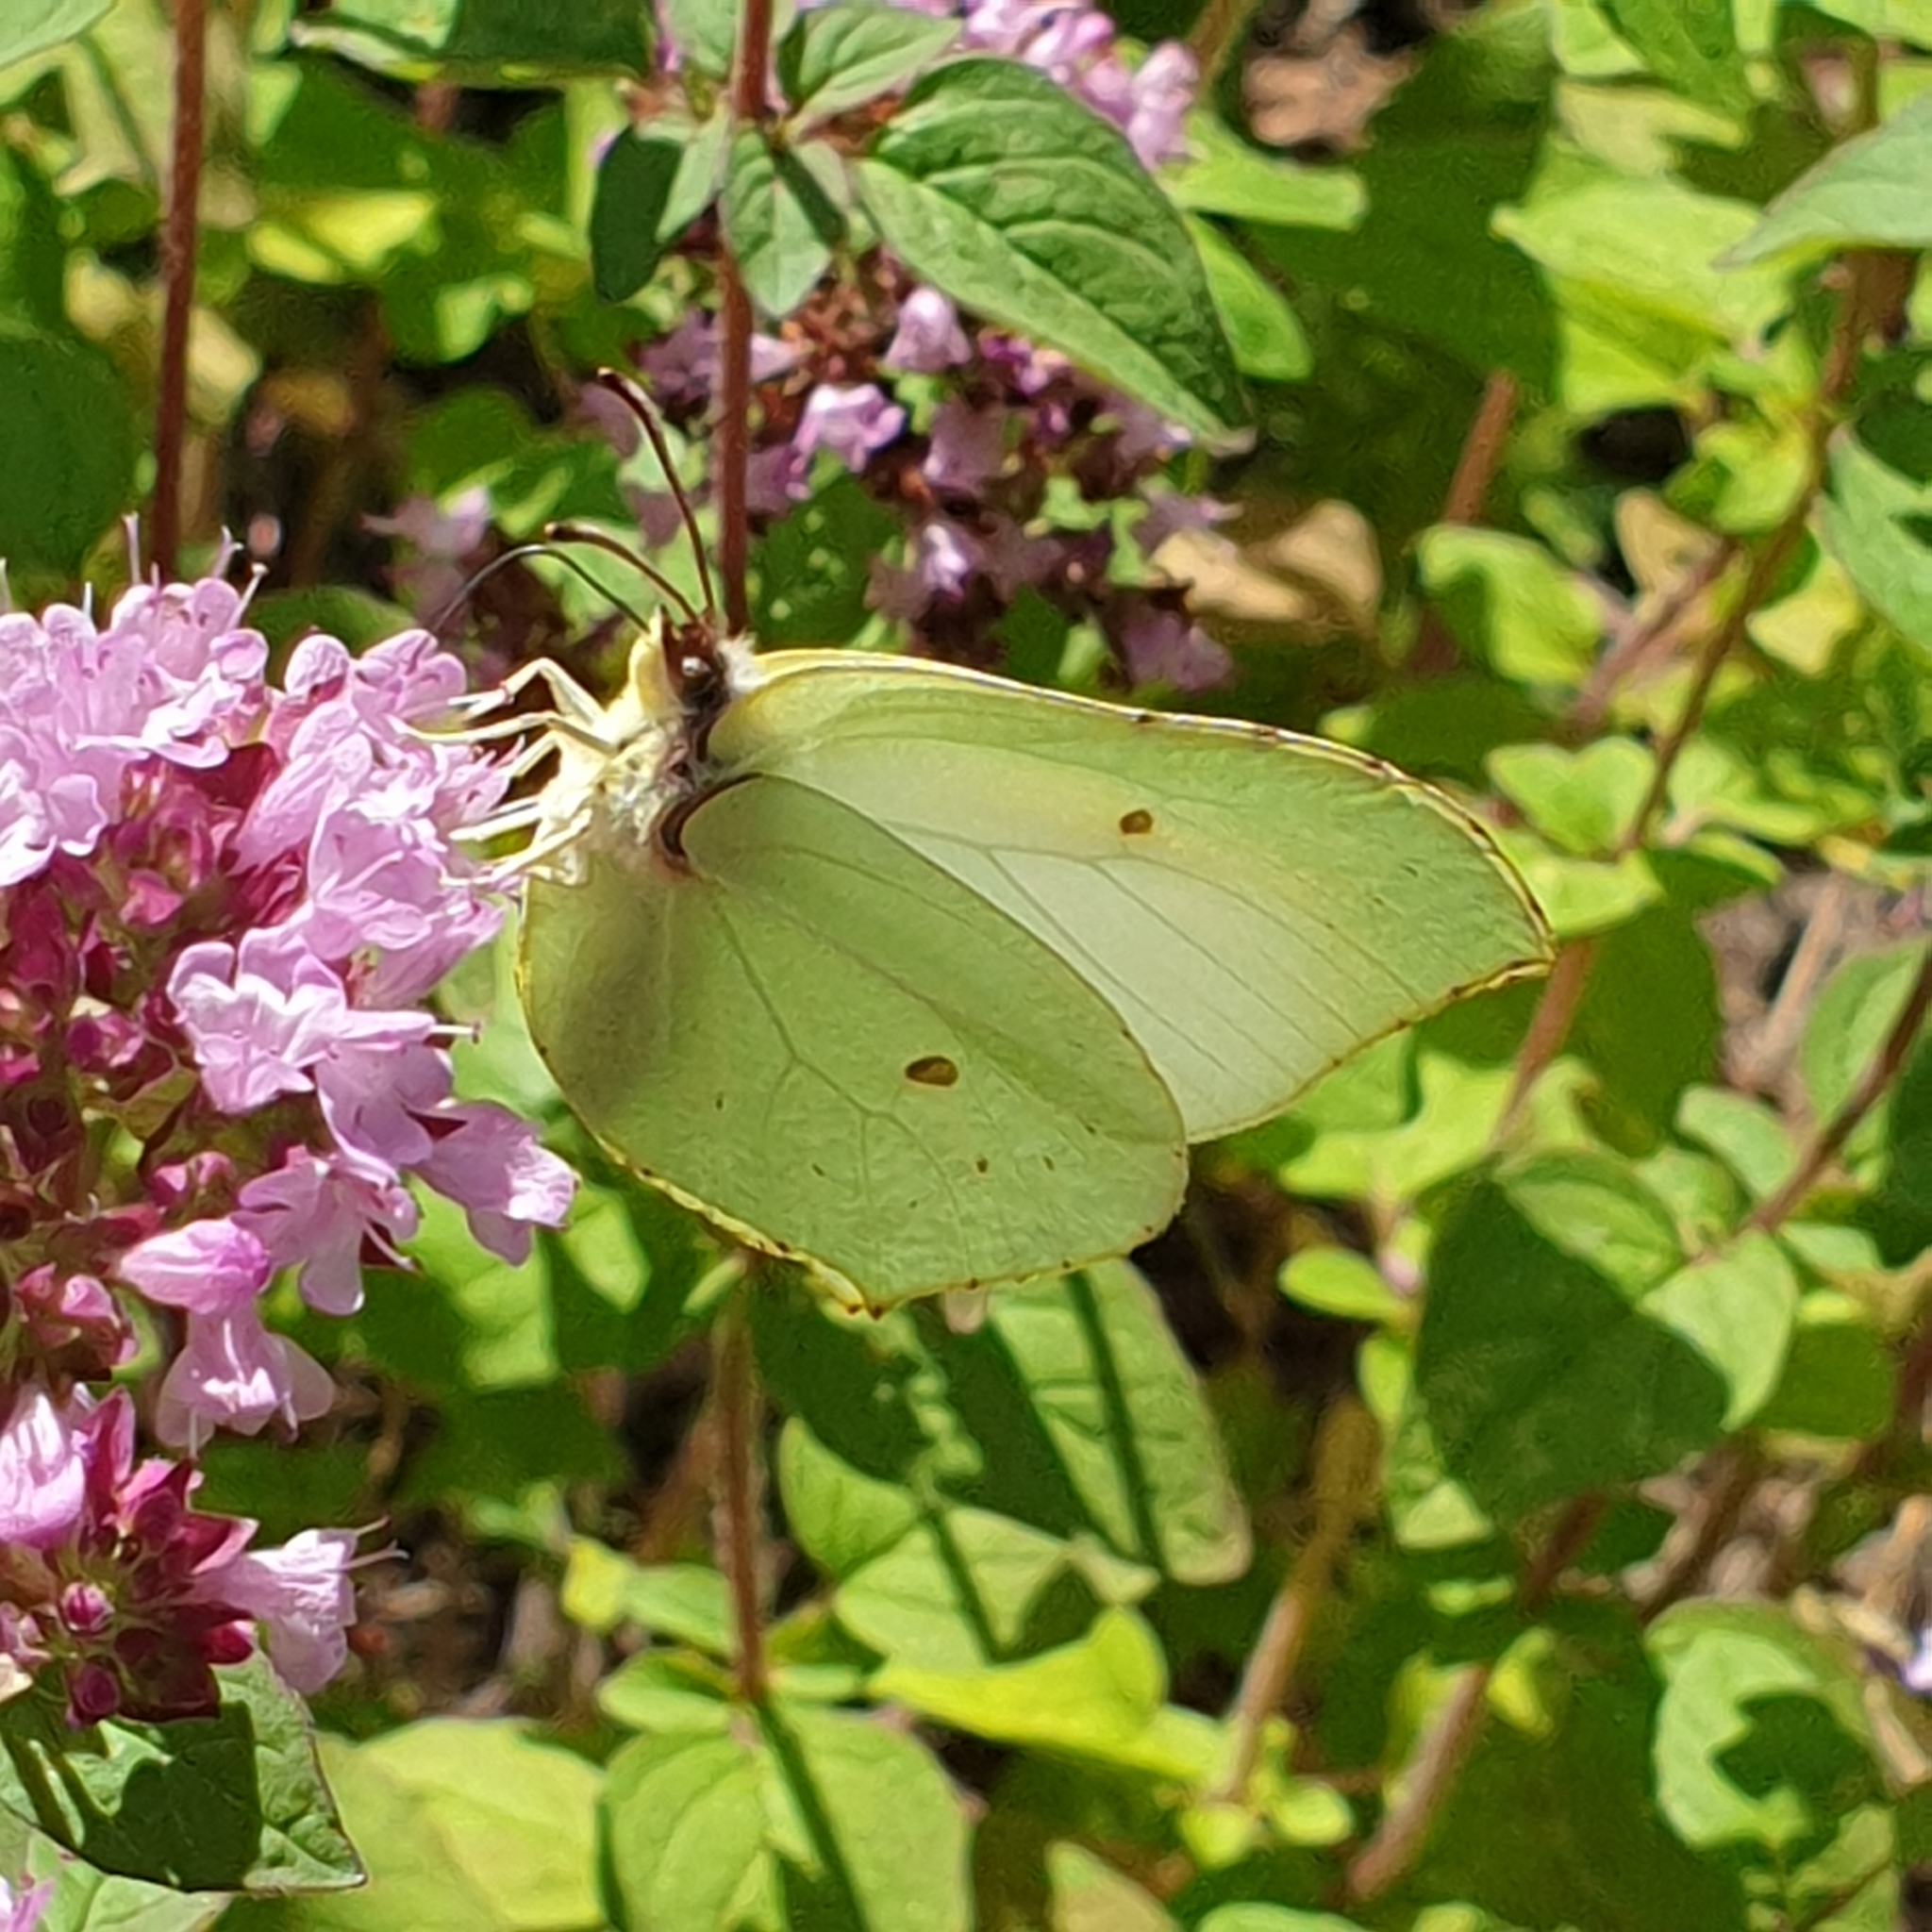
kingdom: Animalia
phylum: Arthropoda
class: Insecta
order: Lepidoptera
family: Pieridae
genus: Gonepteryx
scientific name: Gonepteryx rhamni
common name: Brimstone
